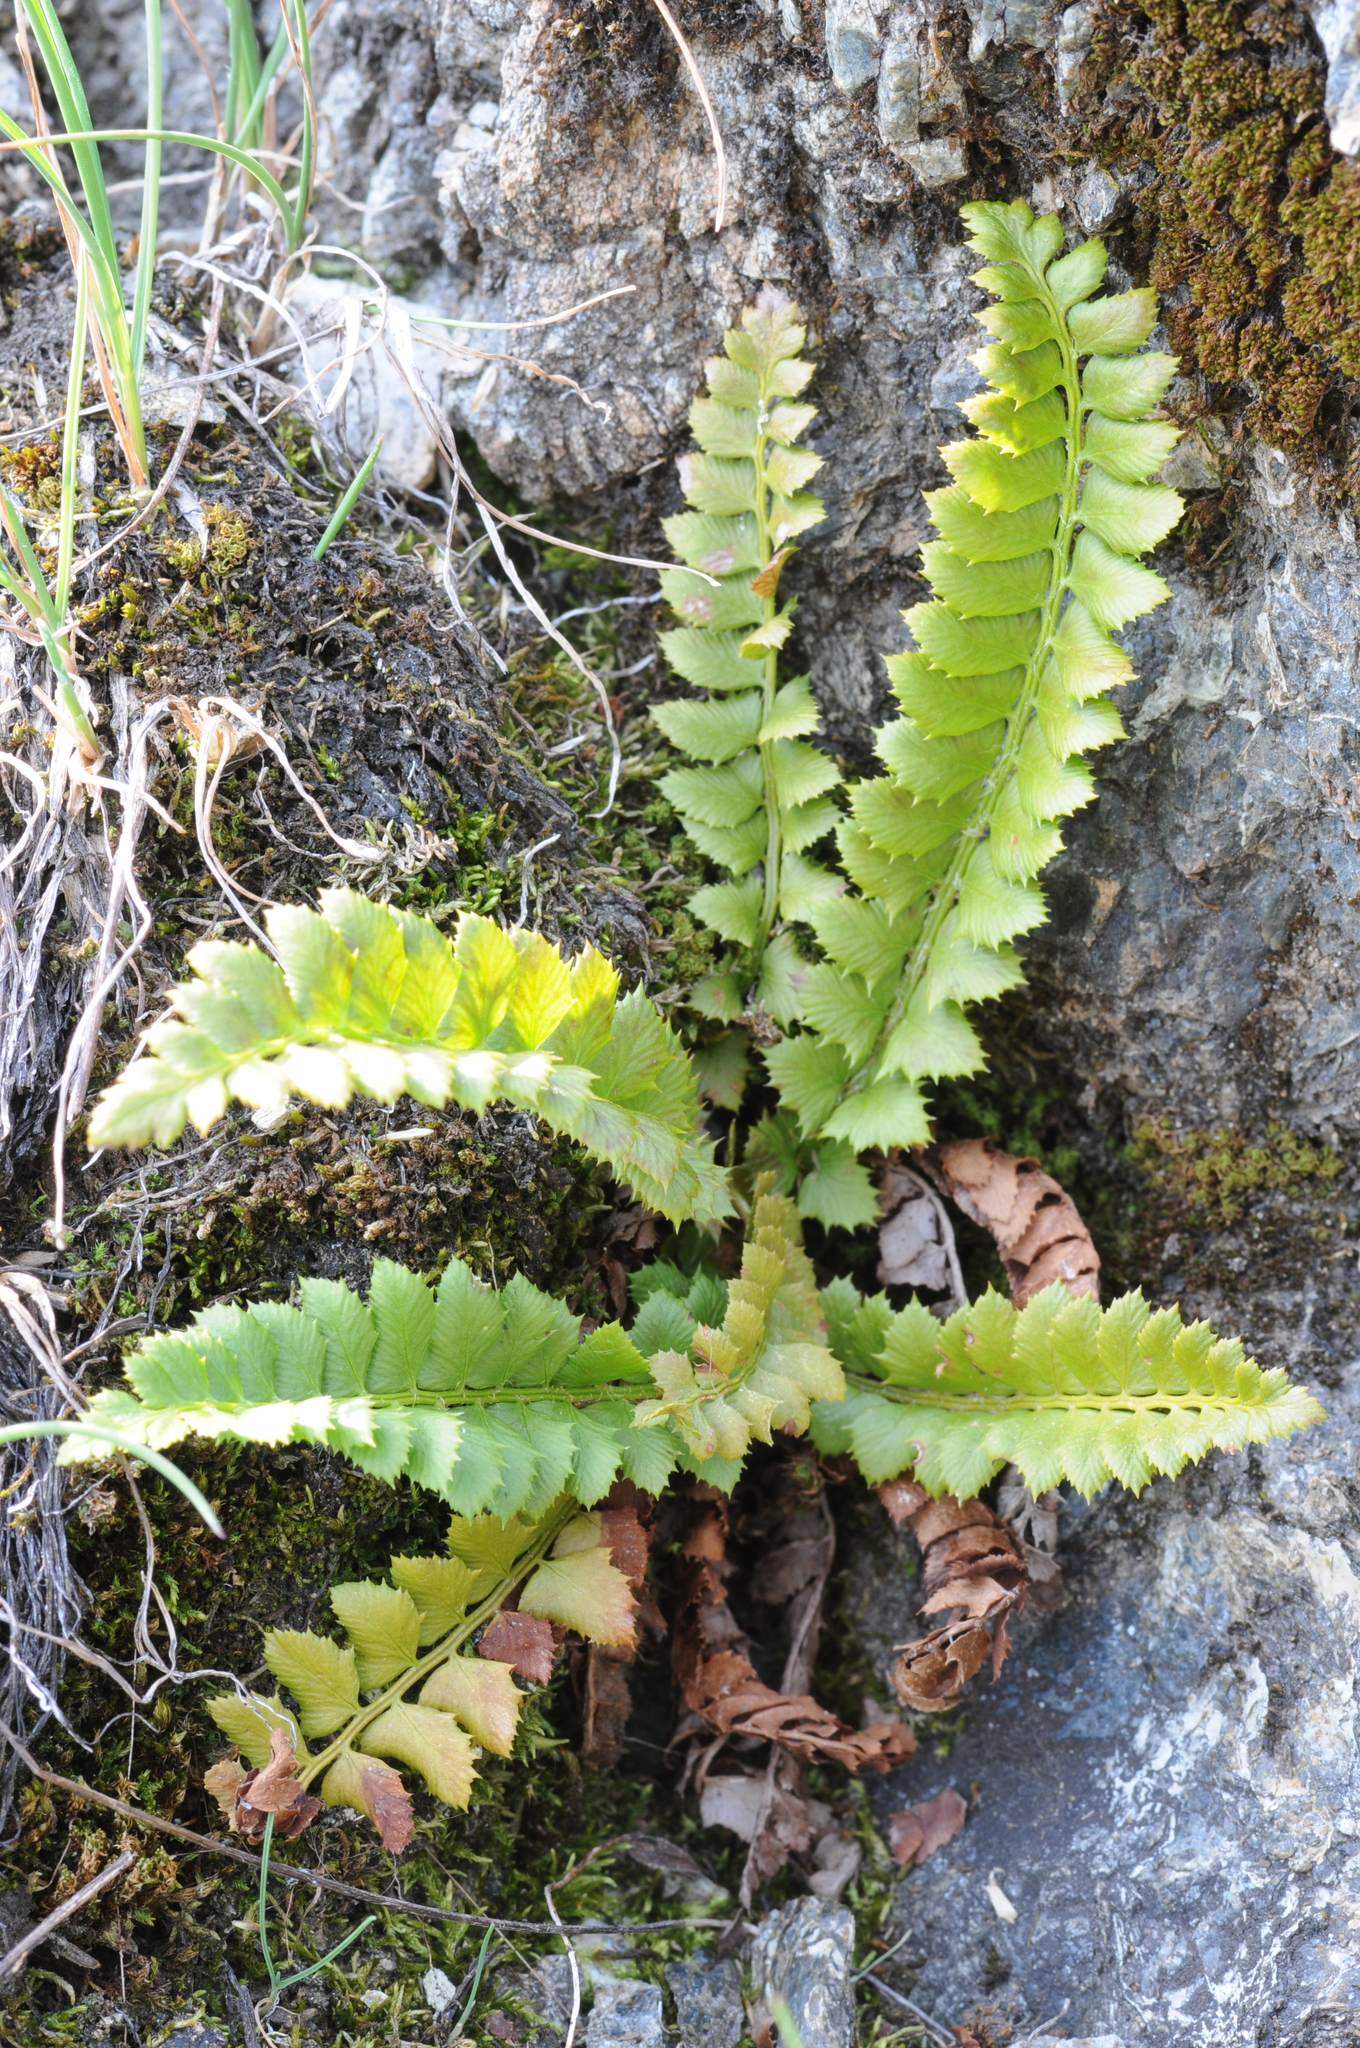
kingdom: Plantae
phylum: Tracheophyta
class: Polypodiopsida
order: Polypodiales
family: Dryopteridaceae
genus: Polystichum
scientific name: Polystichum lonchitis
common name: Holly fern
